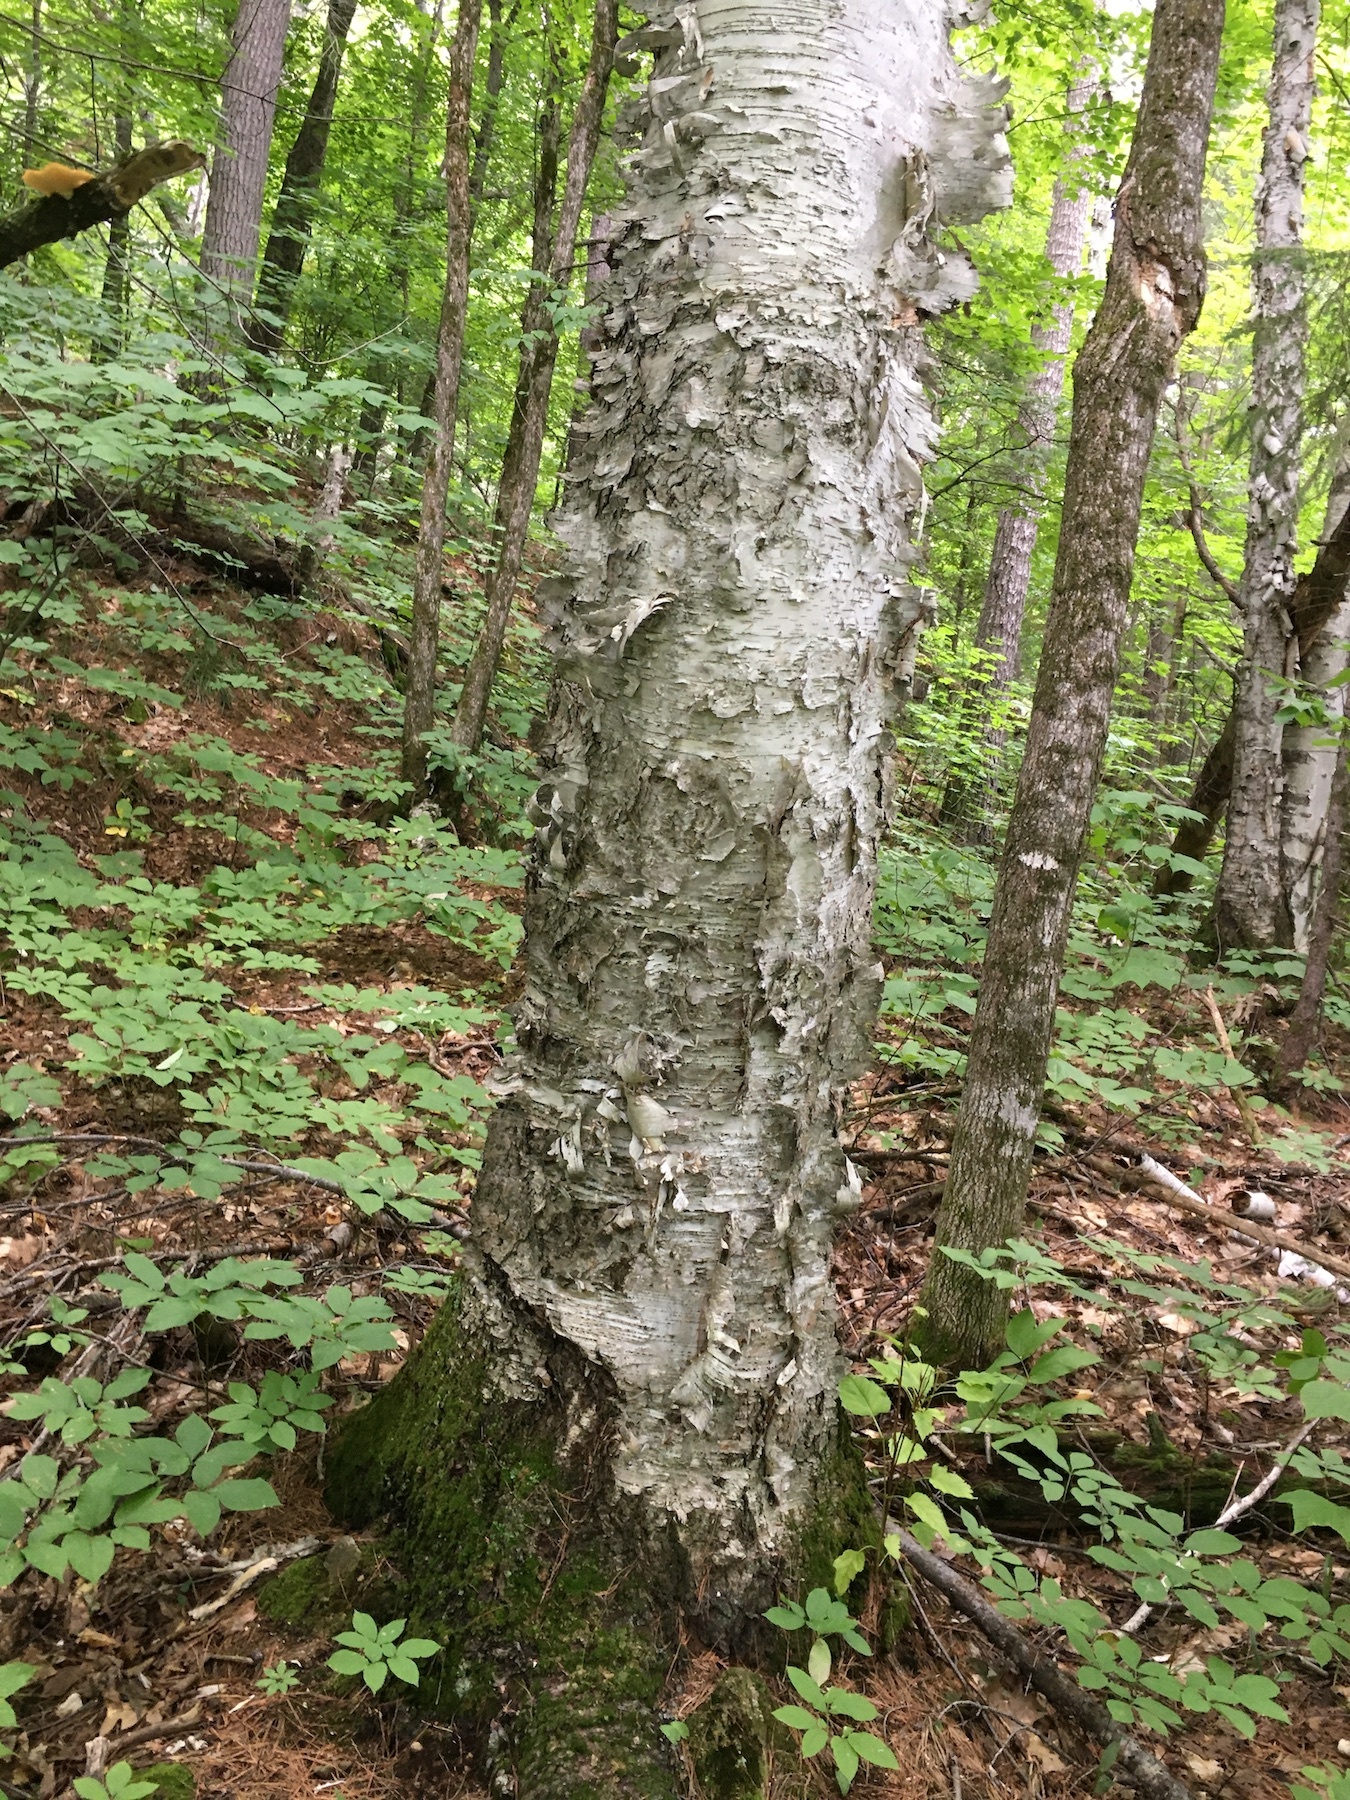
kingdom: Plantae
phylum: Tracheophyta
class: Magnoliopsida
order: Fagales
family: Betulaceae
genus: Betula
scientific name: Betula papyrifera
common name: Paper birch
